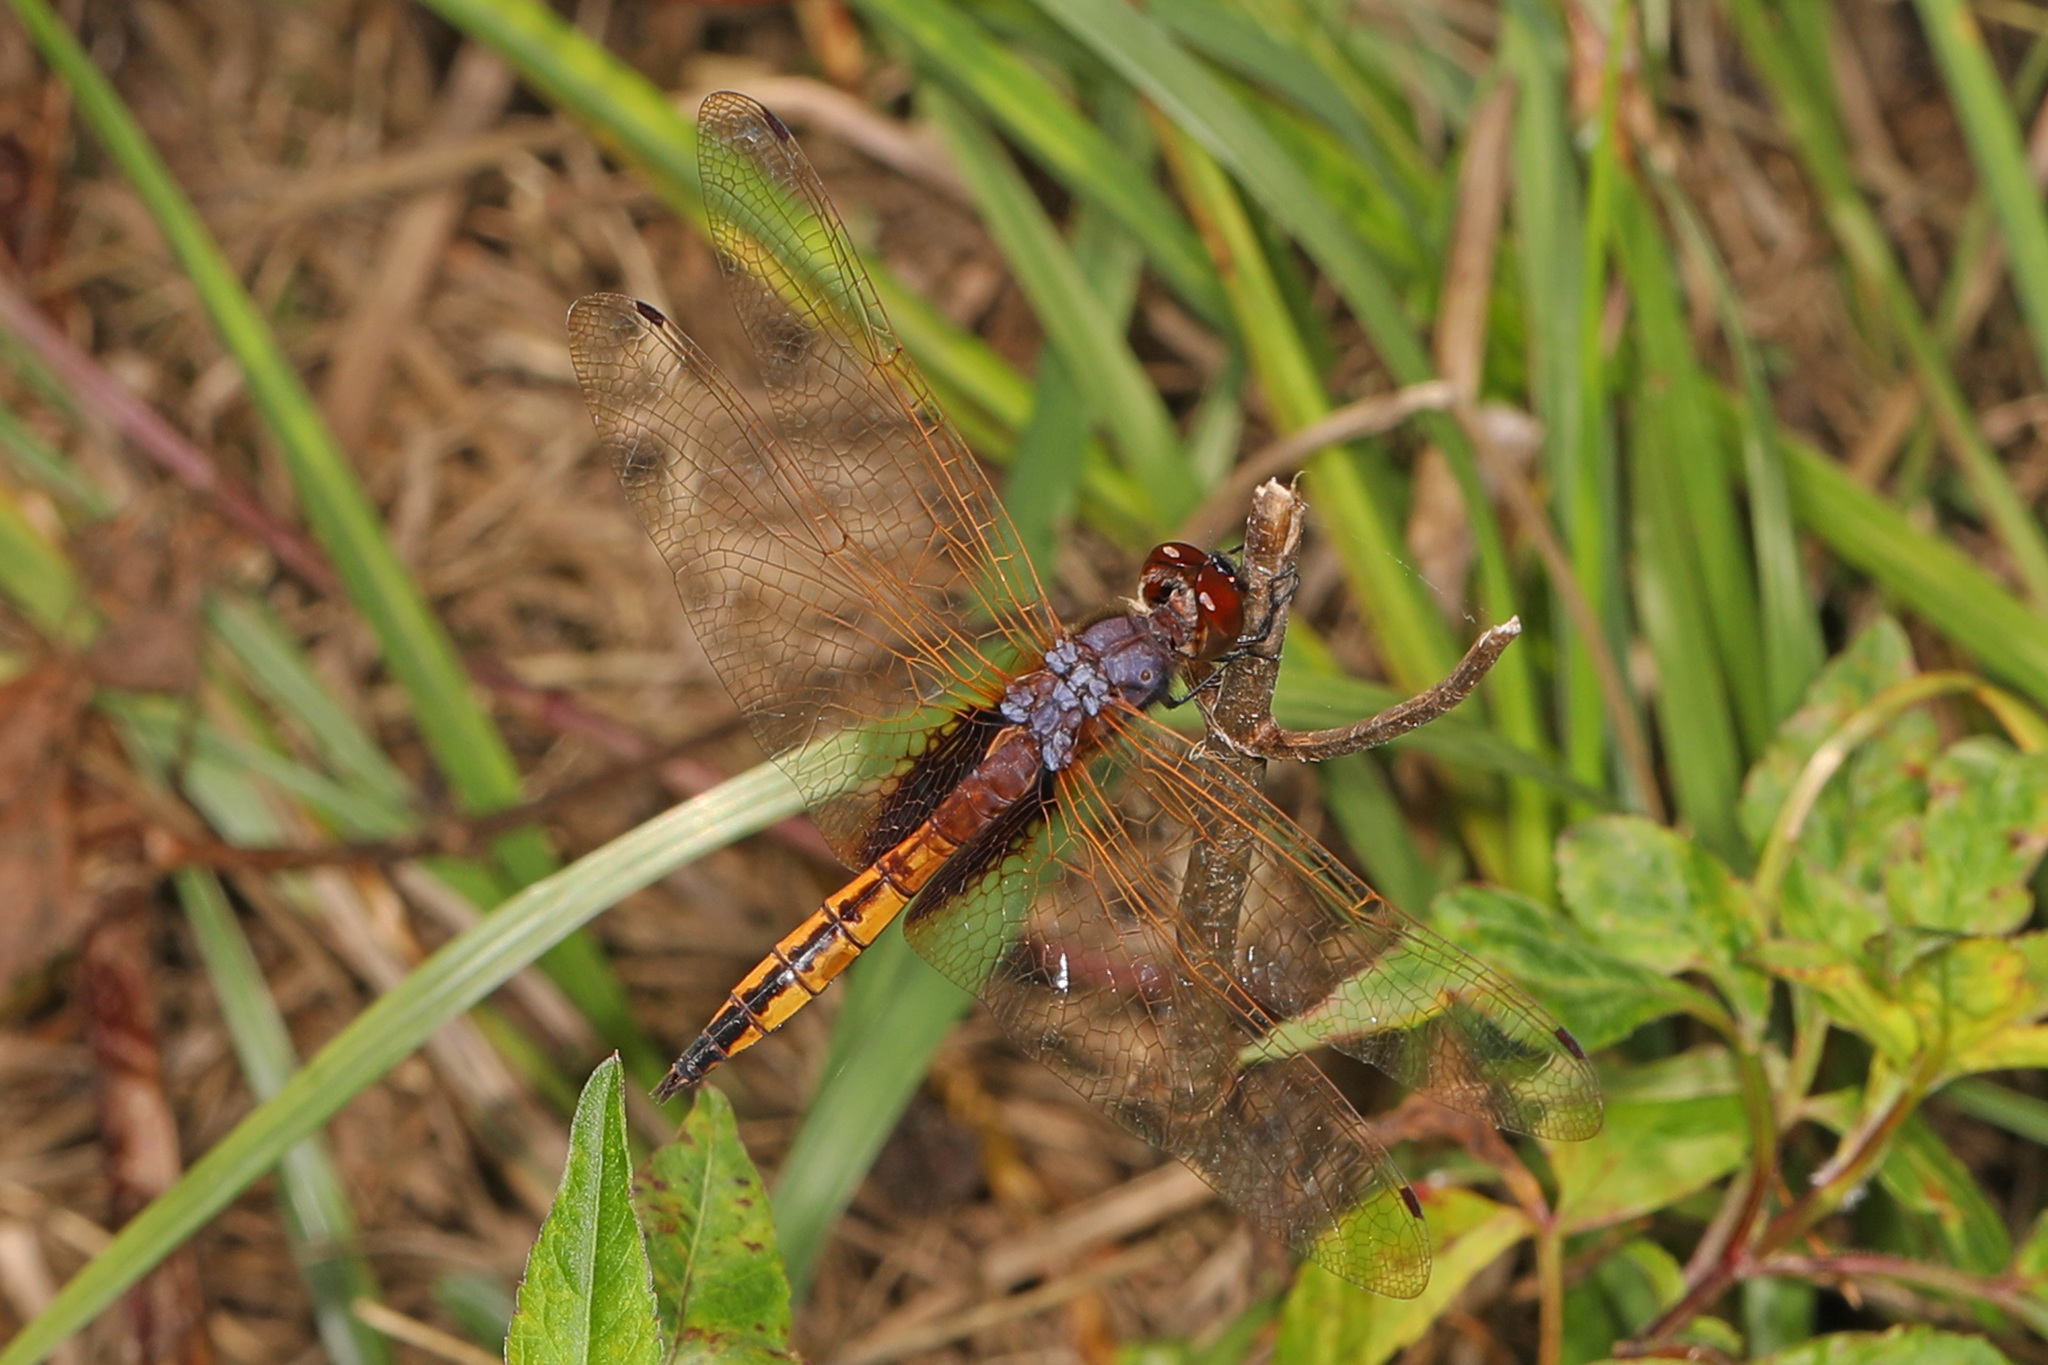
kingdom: Animalia
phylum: Arthropoda
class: Insecta
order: Odonata
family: Libellulidae
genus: Miathyria
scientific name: Miathyria marcella
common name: Hyacinth glider
